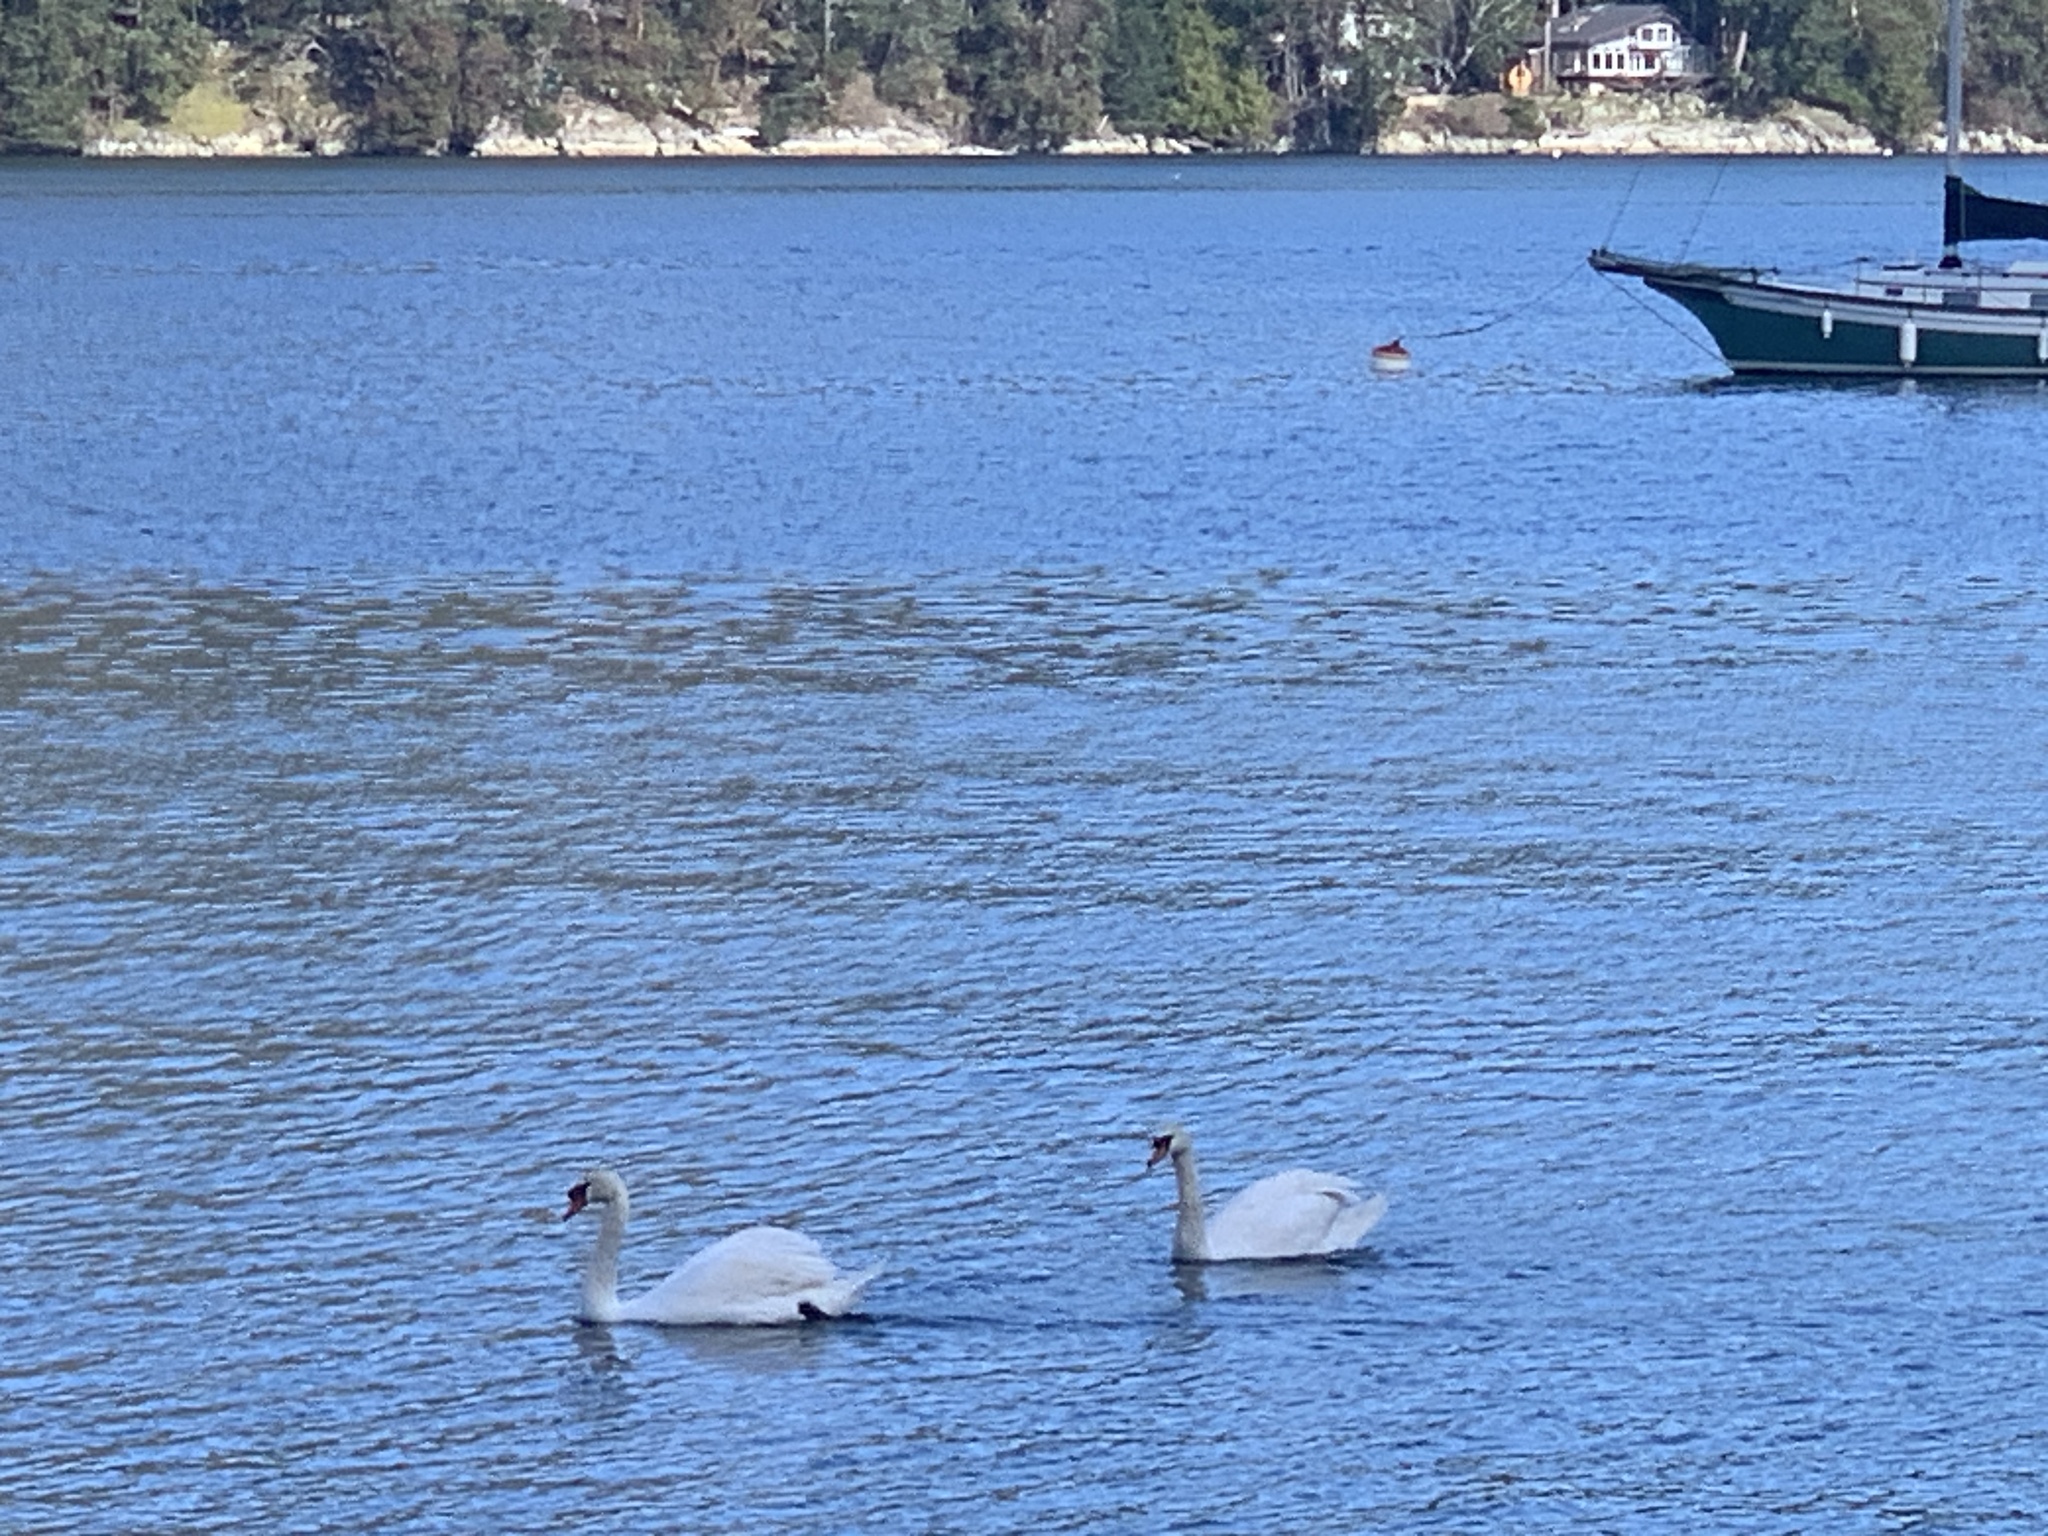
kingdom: Animalia
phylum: Chordata
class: Aves
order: Anseriformes
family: Anatidae
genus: Cygnus
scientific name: Cygnus olor
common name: Mute swan
